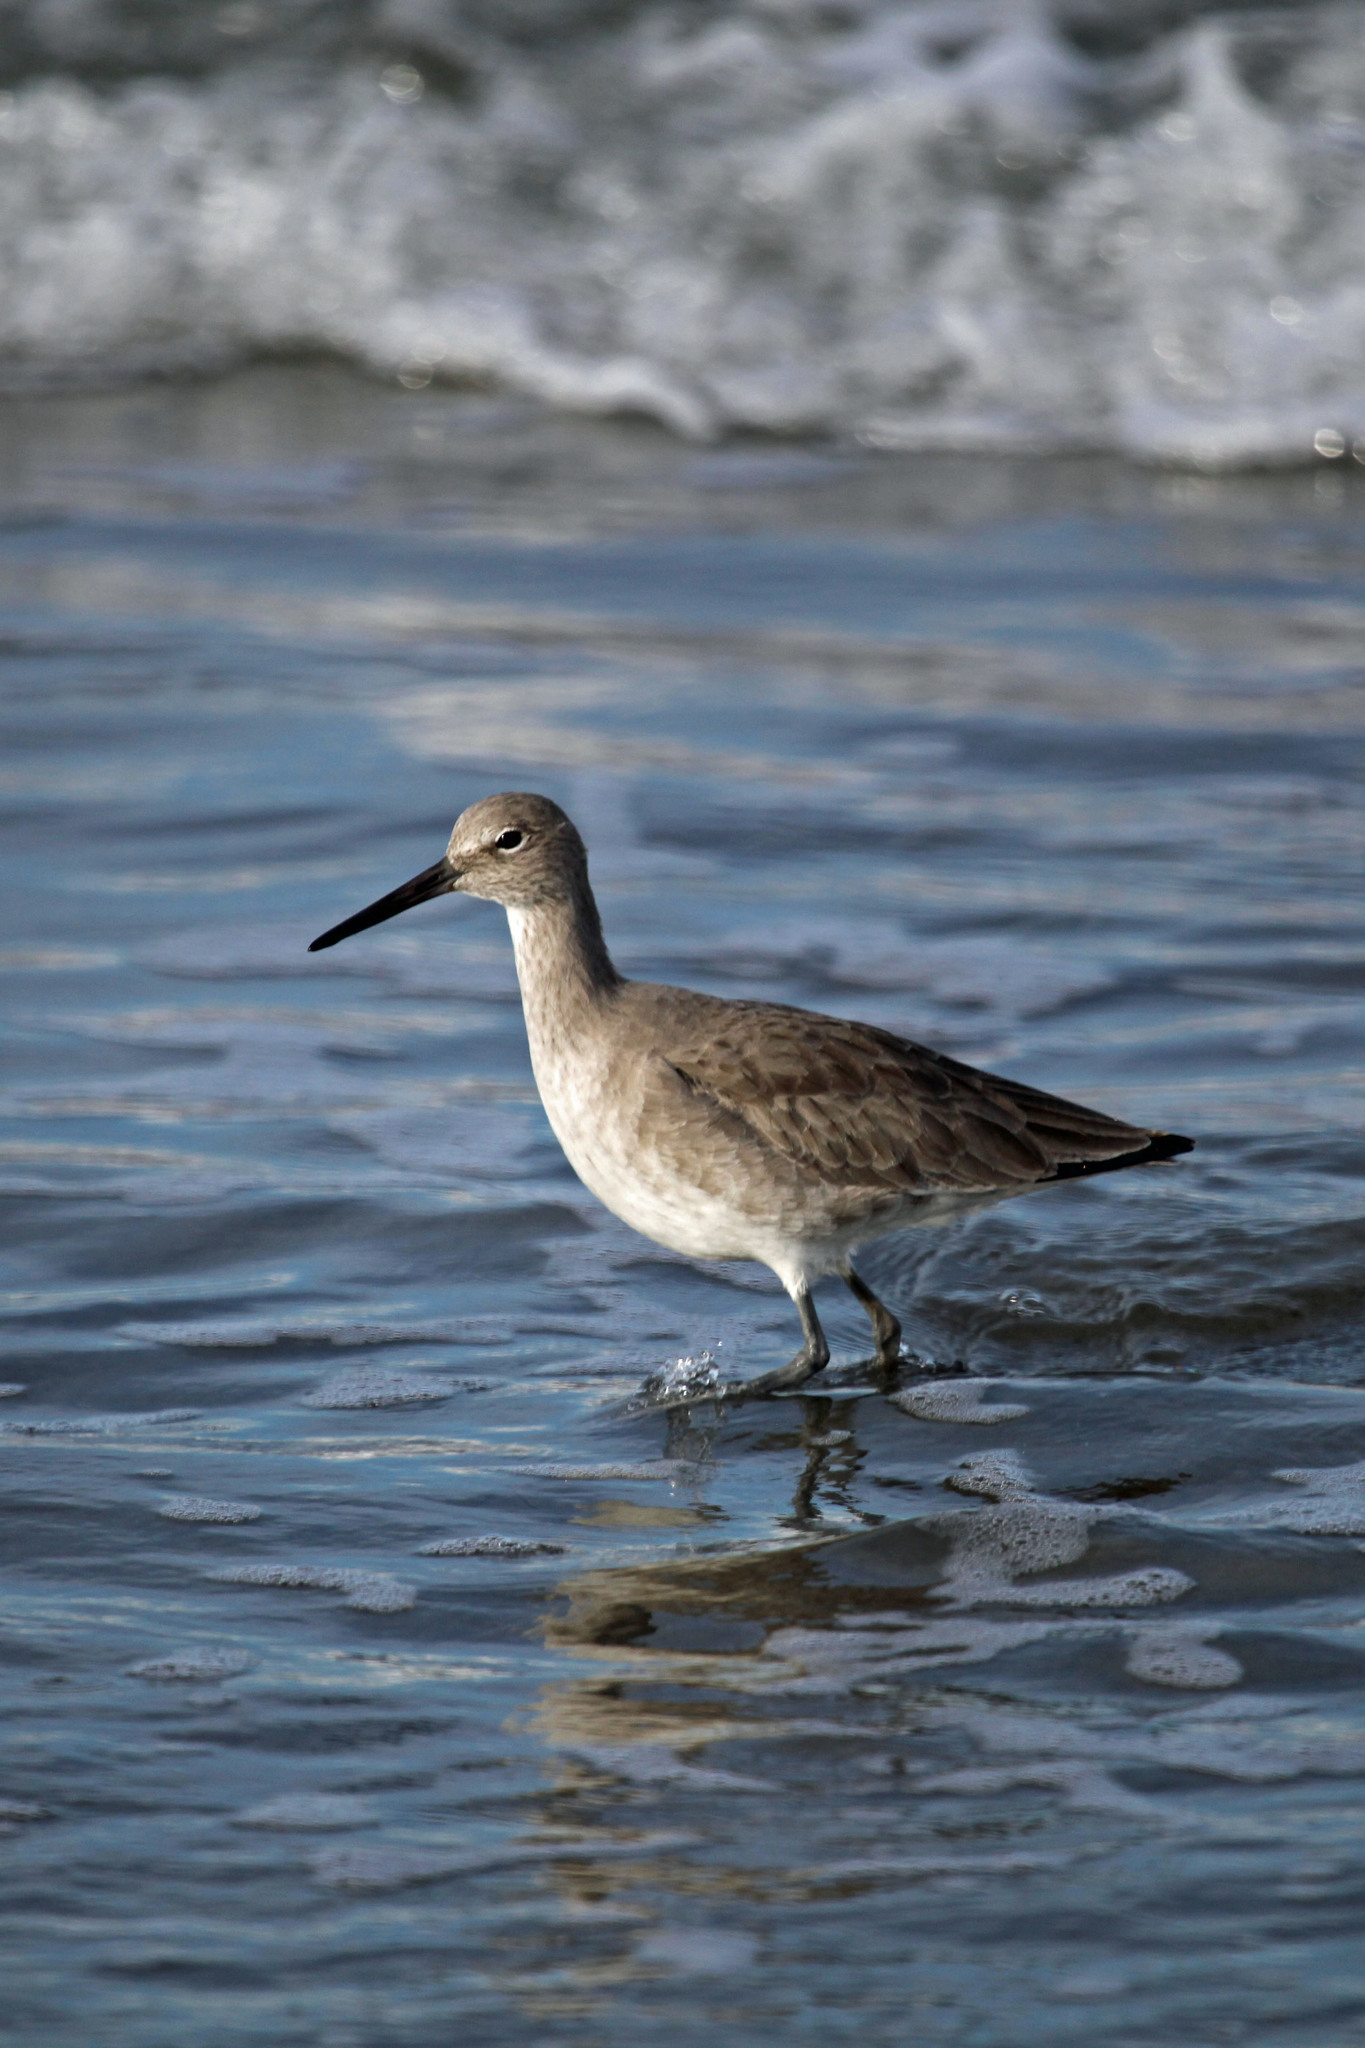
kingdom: Animalia
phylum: Chordata
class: Aves
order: Charadriiformes
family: Scolopacidae
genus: Tringa
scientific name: Tringa semipalmata
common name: Willet
